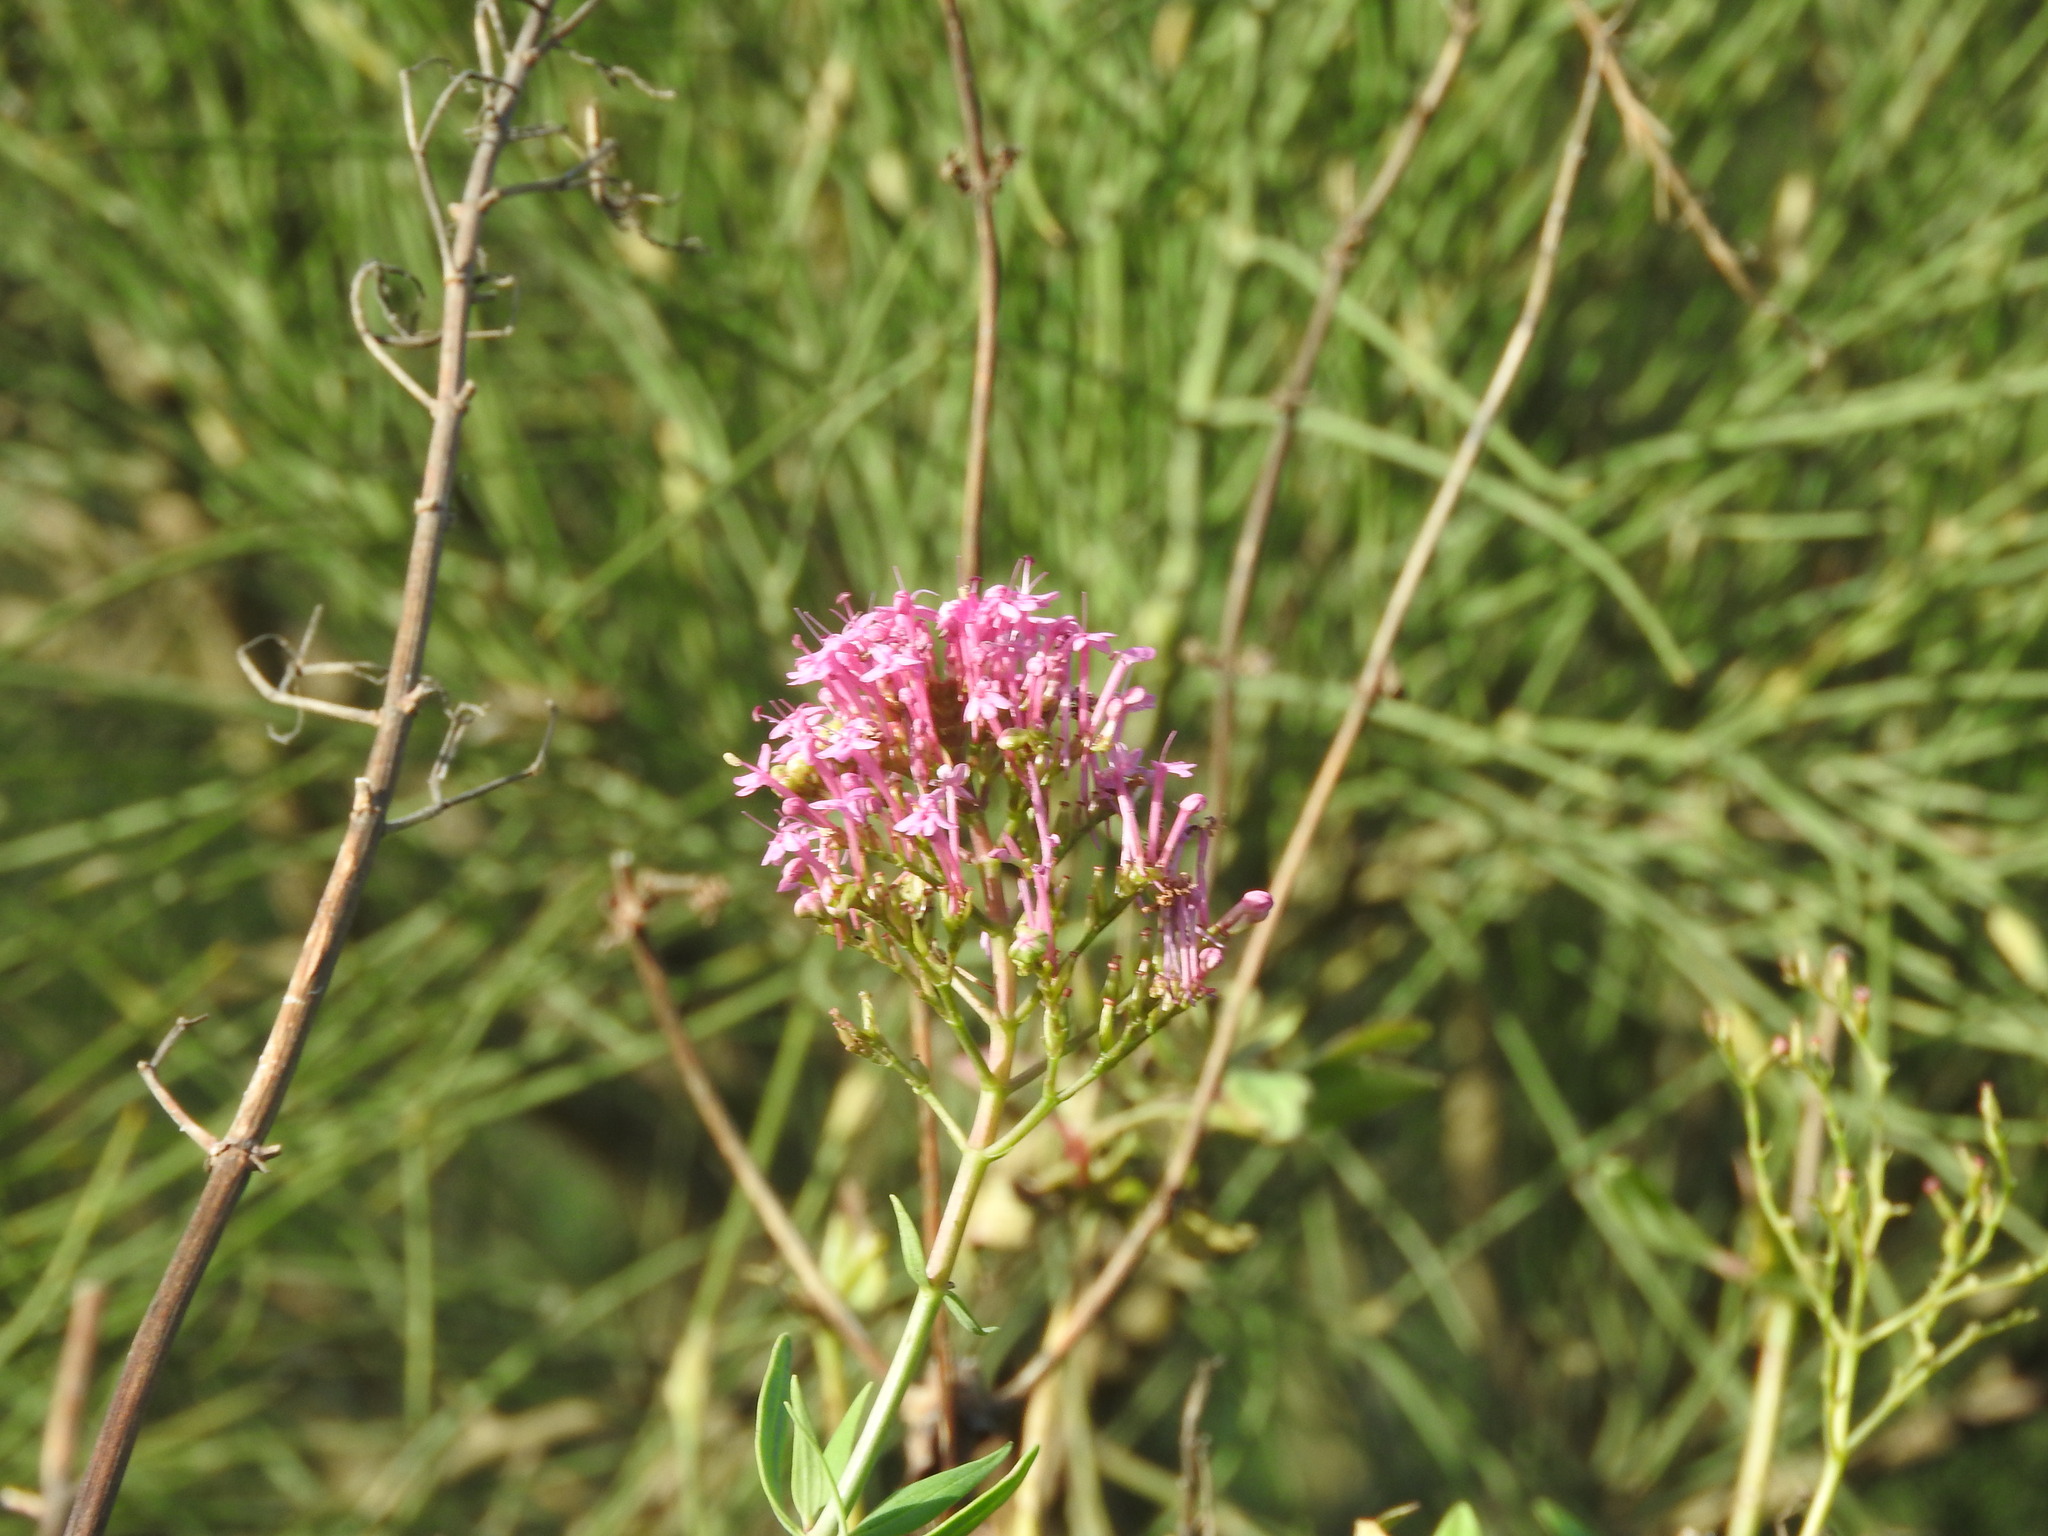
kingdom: Plantae
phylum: Tracheophyta
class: Magnoliopsida
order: Dipsacales
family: Caprifoliaceae
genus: Centranthus
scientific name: Centranthus ruber
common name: Red valerian
